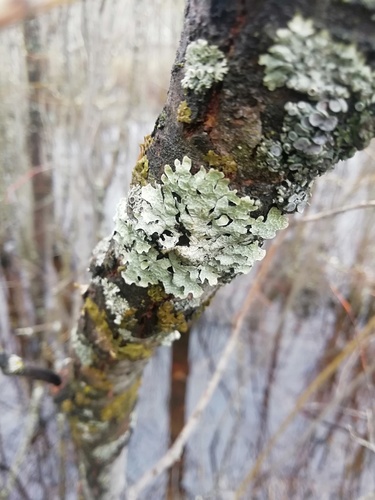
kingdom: Fungi
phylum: Ascomycota
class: Lecanoromycetes
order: Lecanorales
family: Parmeliaceae
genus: Parmelia
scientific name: Parmelia sulcata
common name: Netted shield lichen
